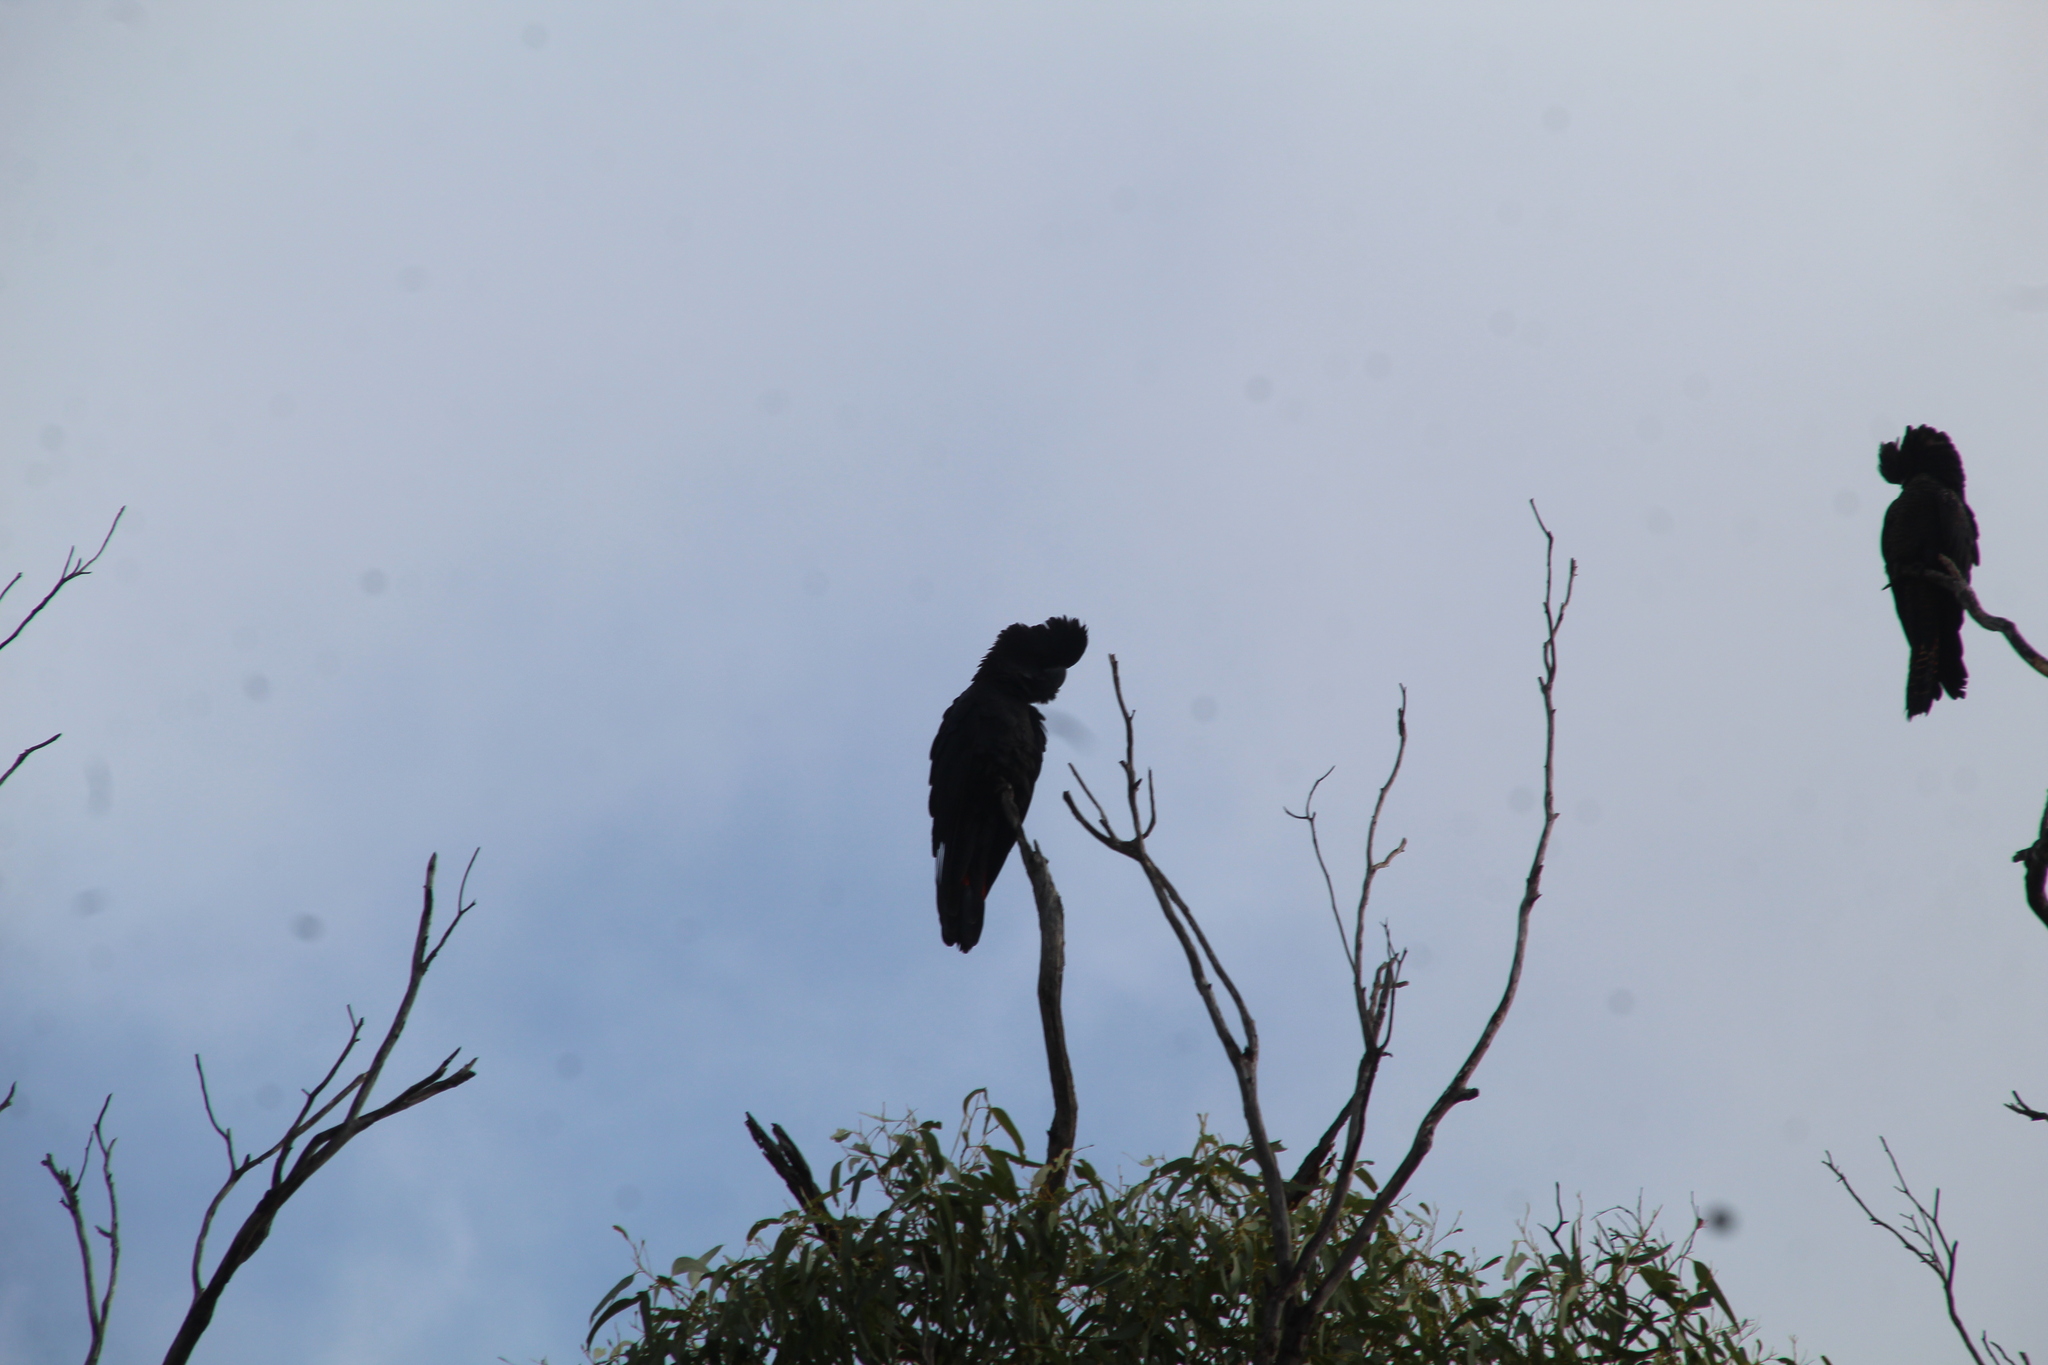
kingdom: Animalia
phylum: Chordata
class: Aves
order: Psittaciformes
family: Psittacidae
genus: Calyptorhynchus
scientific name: Calyptorhynchus banksii
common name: Red-tailed black cockatoo
